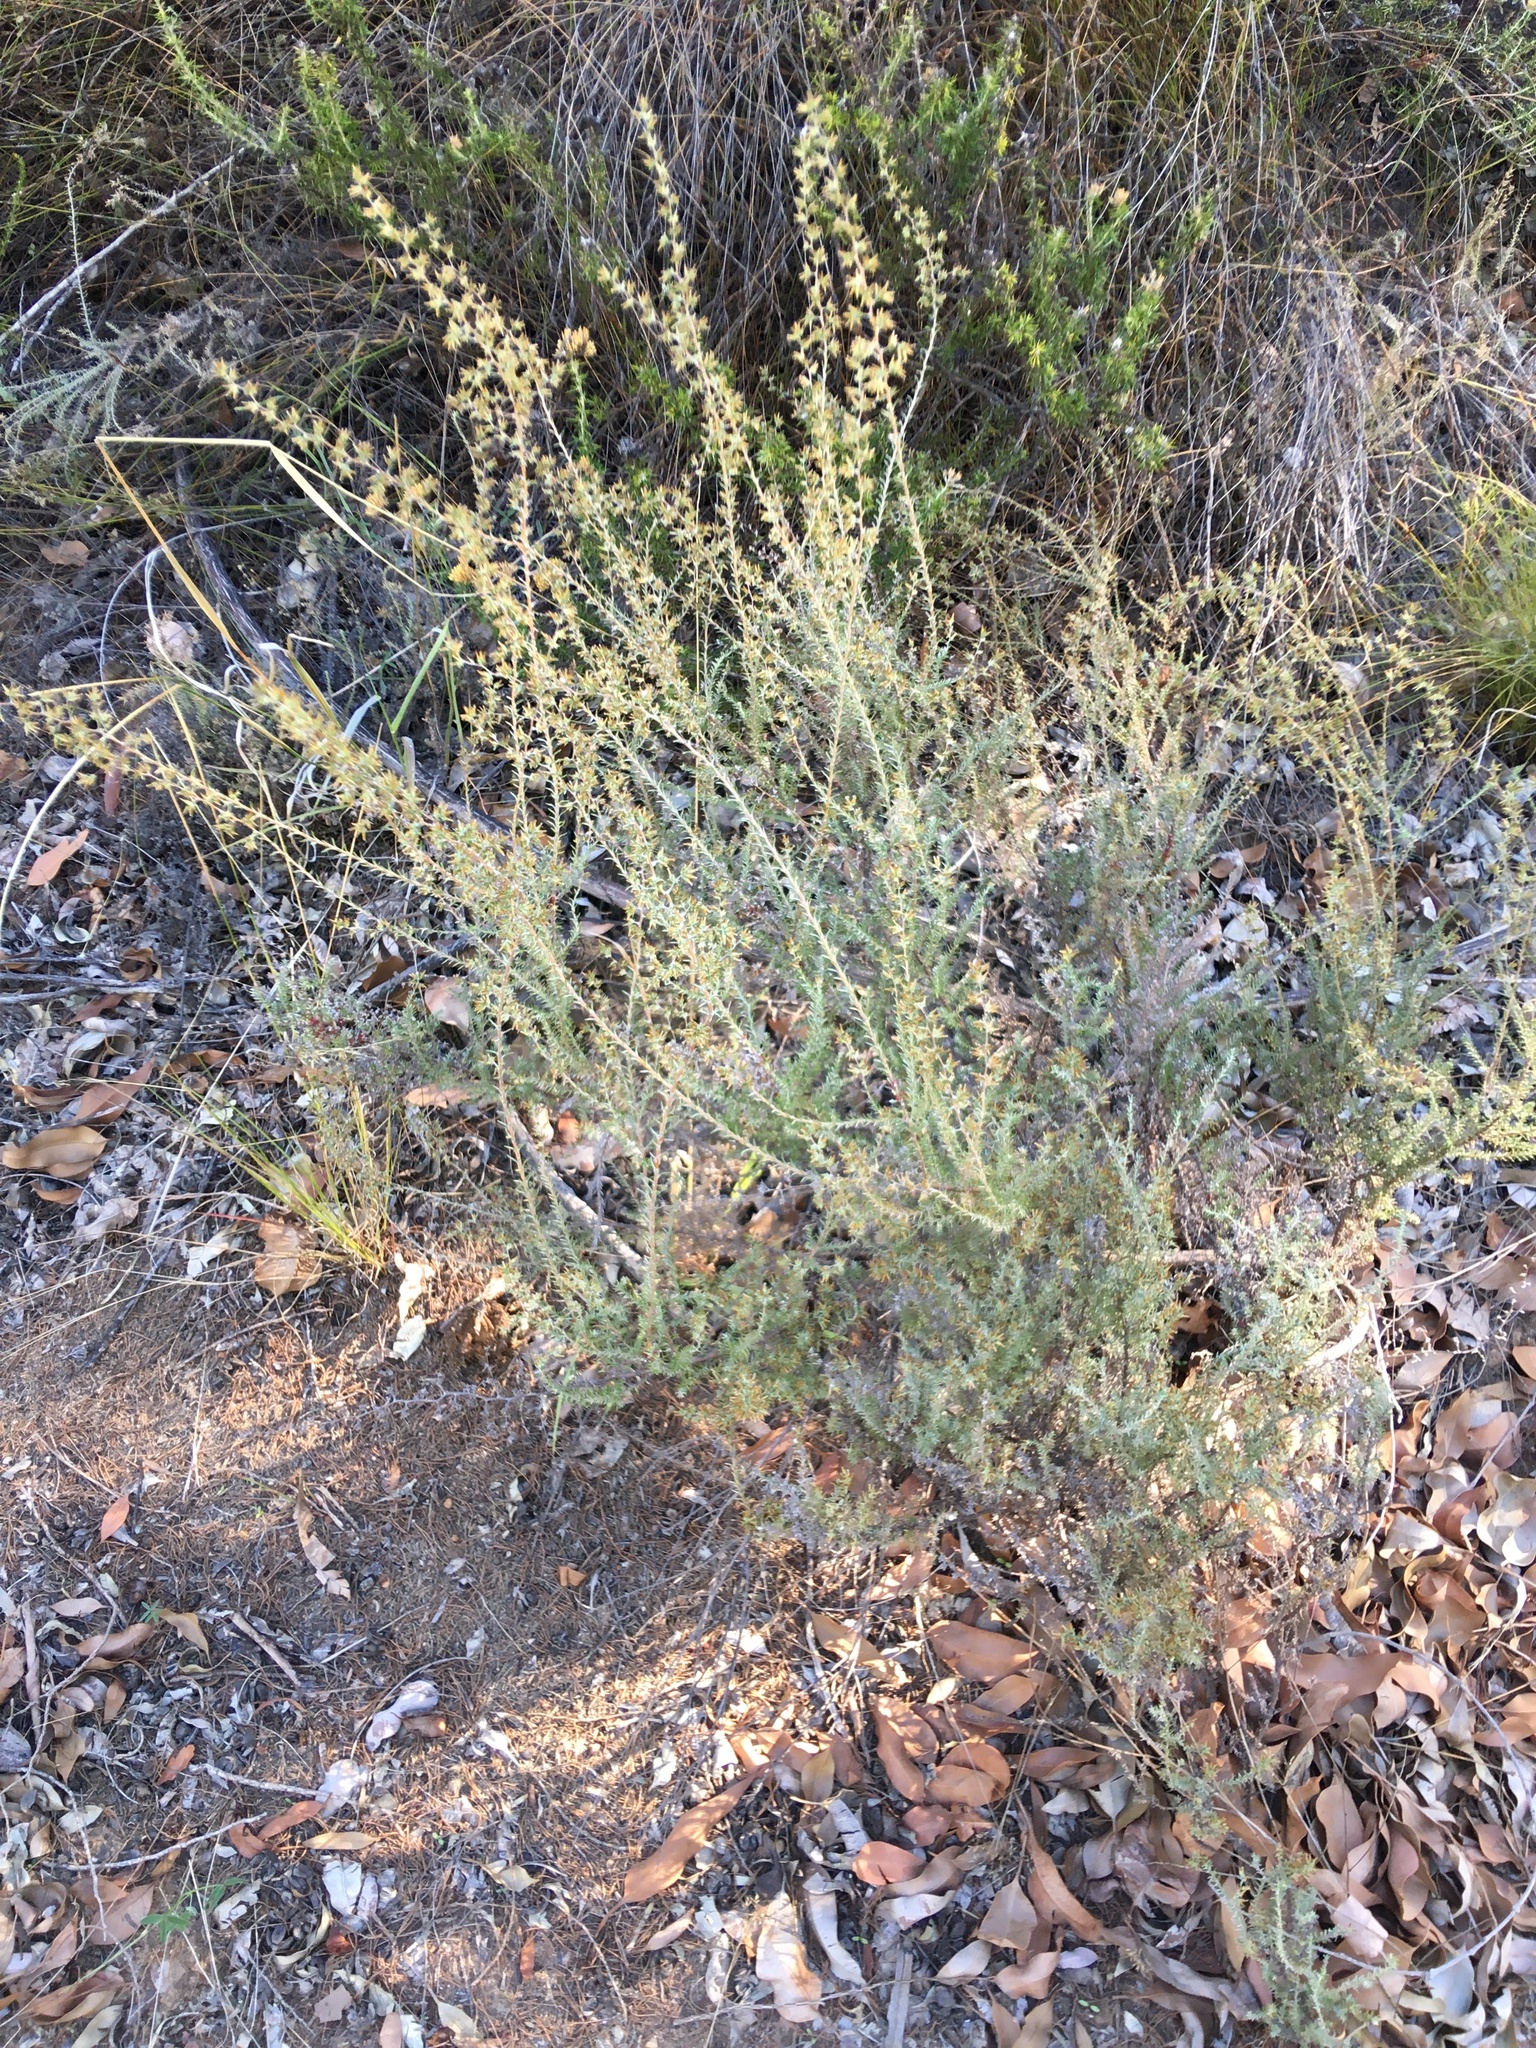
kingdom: Plantae
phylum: Tracheophyta
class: Magnoliopsida
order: Asterales
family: Asteraceae
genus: Myrovernix
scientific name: Myrovernix scaber
